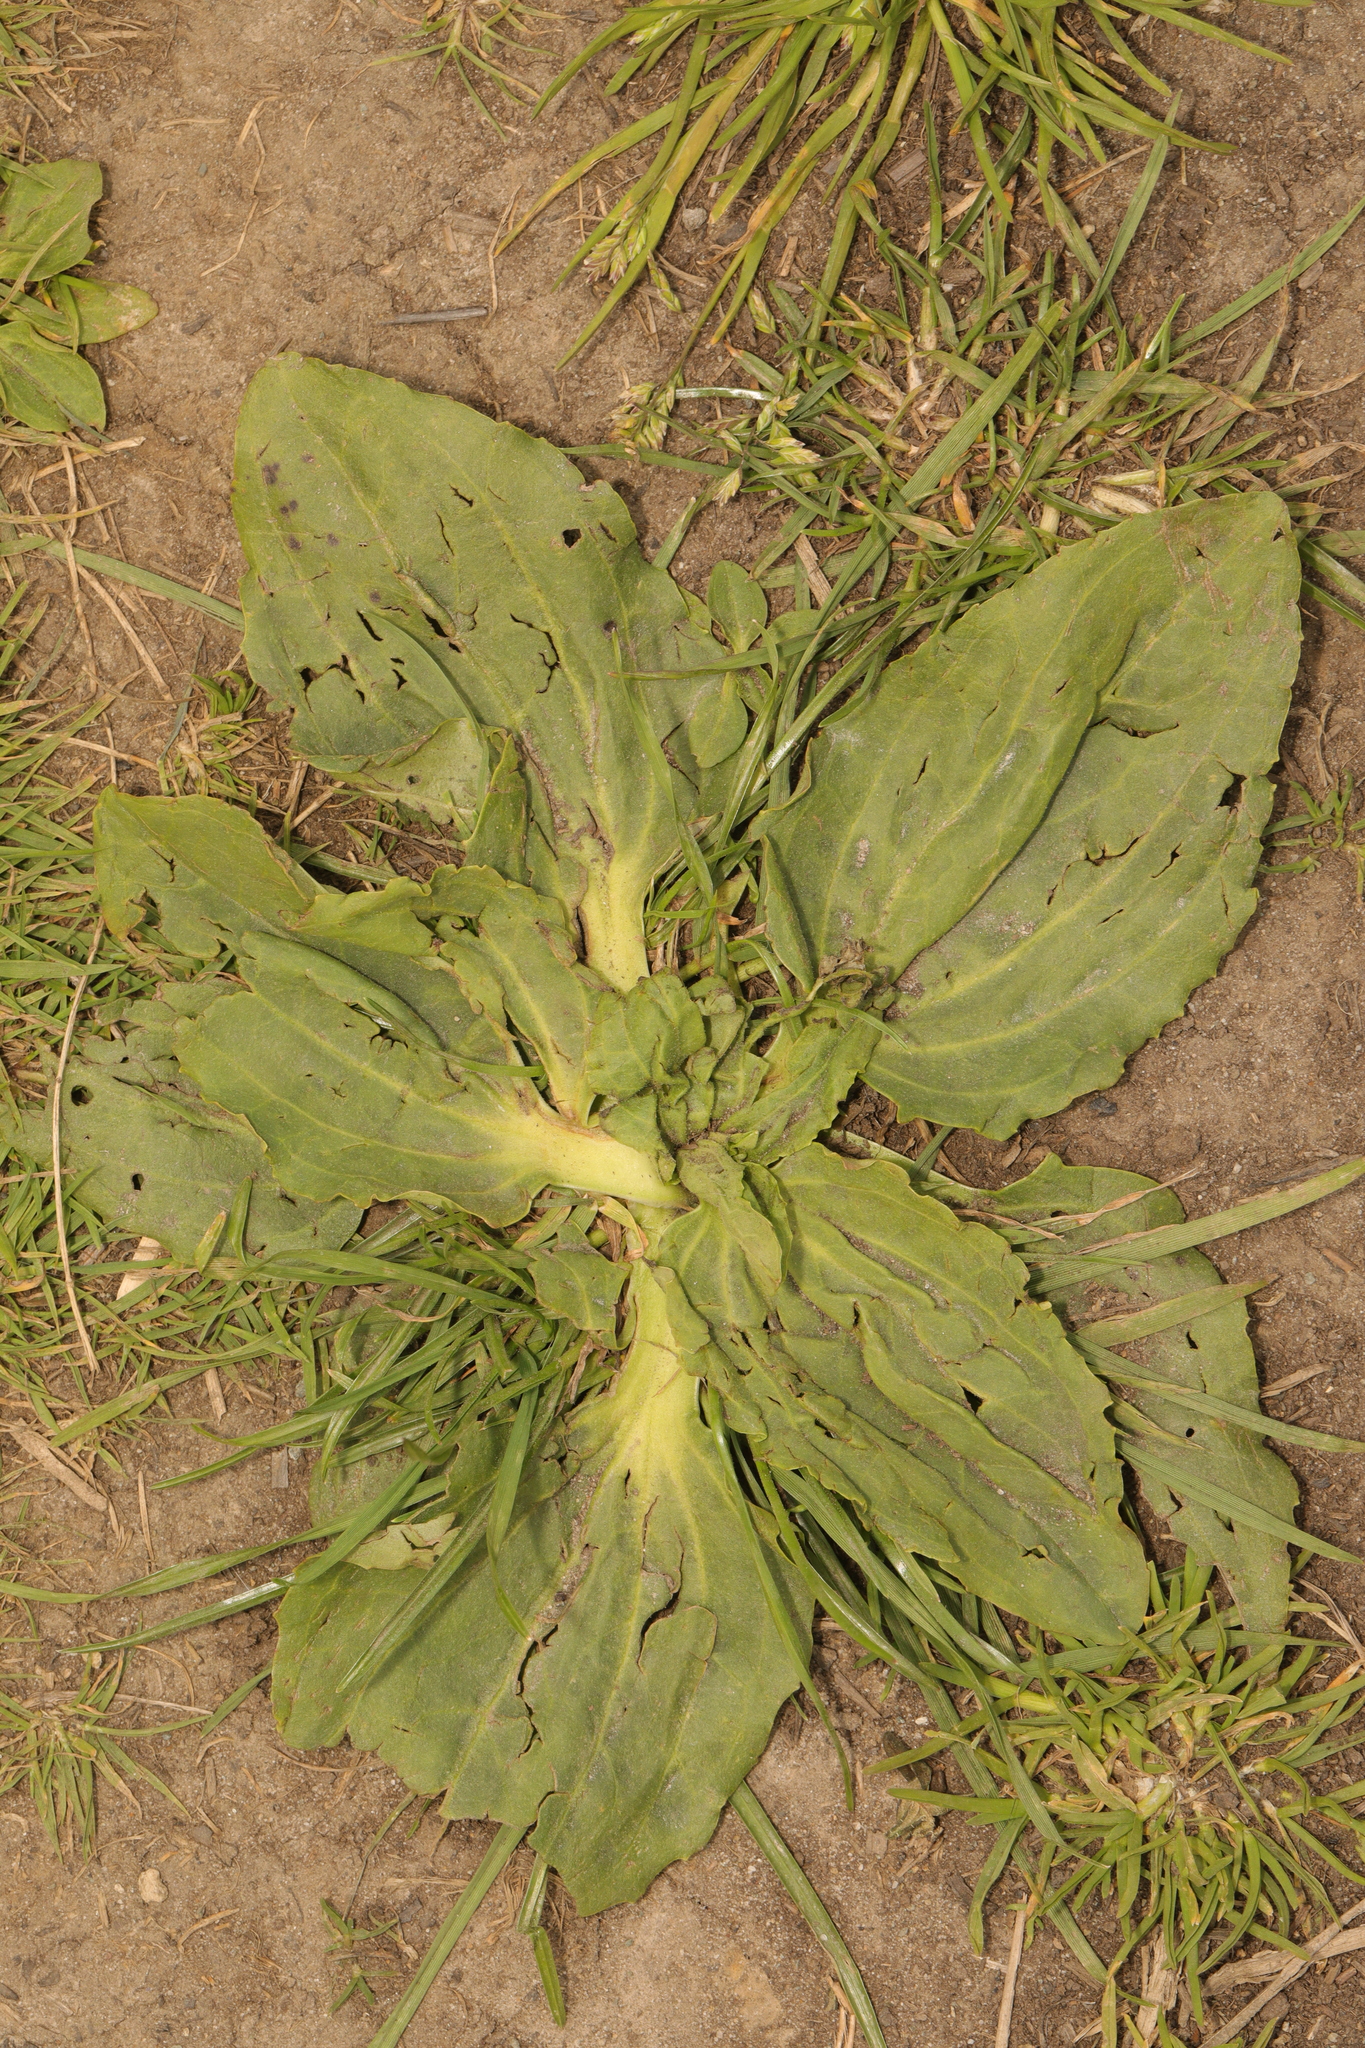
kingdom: Plantae
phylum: Tracheophyta
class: Magnoliopsida
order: Lamiales
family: Plantaginaceae
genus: Plantago
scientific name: Plantago major
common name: Common plantain
